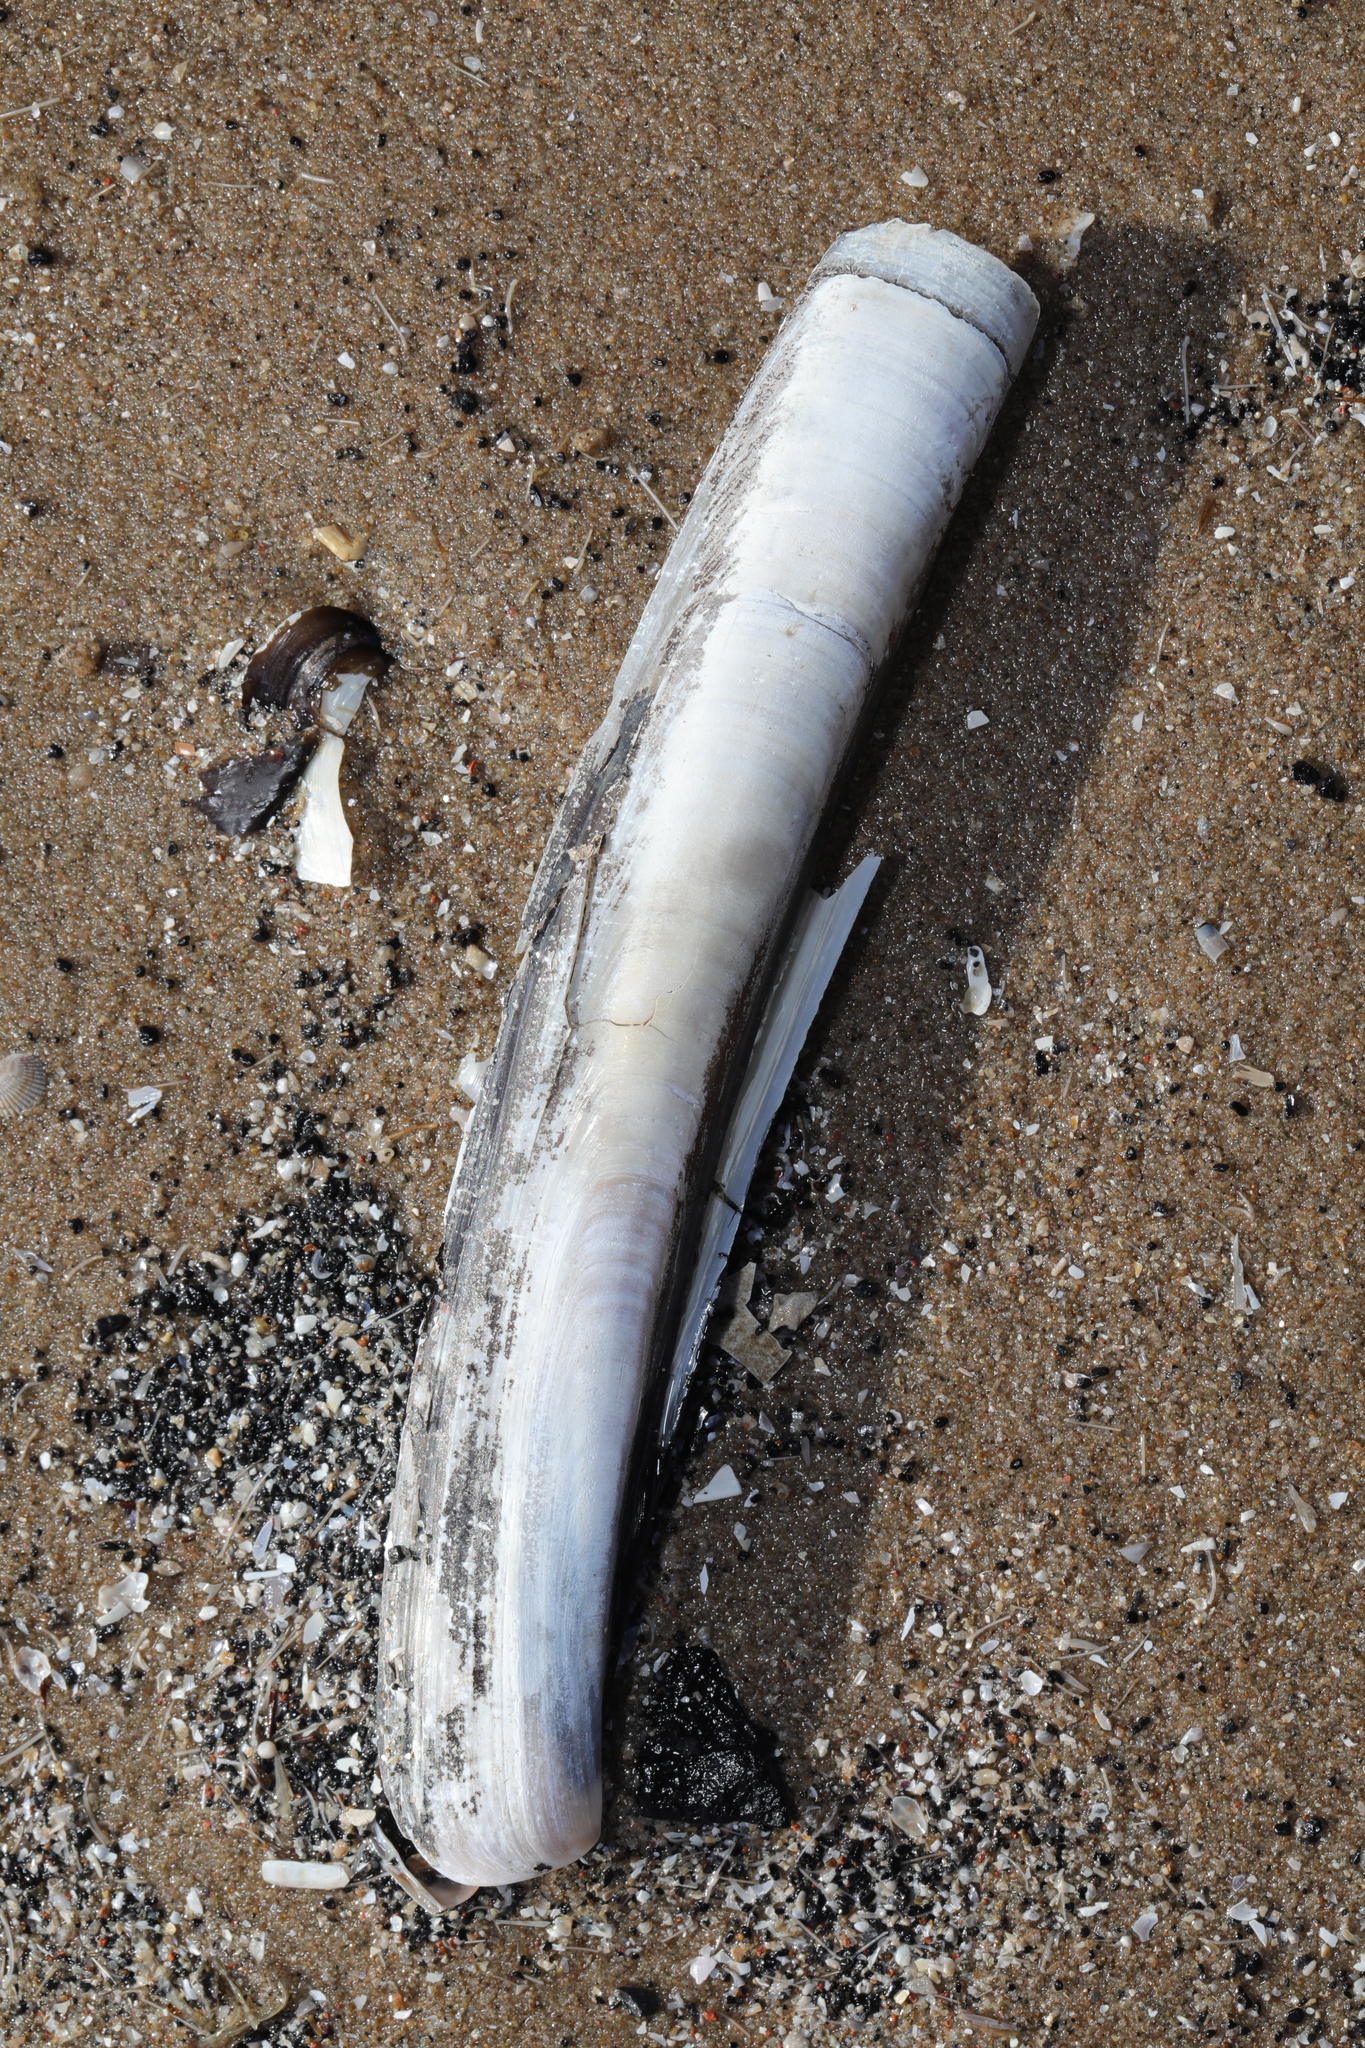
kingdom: Animalia
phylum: Mollusca
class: Bivalvia
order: Adapedonta
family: Pharidae
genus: Ensis
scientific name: Ensis leei
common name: American jack knife clam
